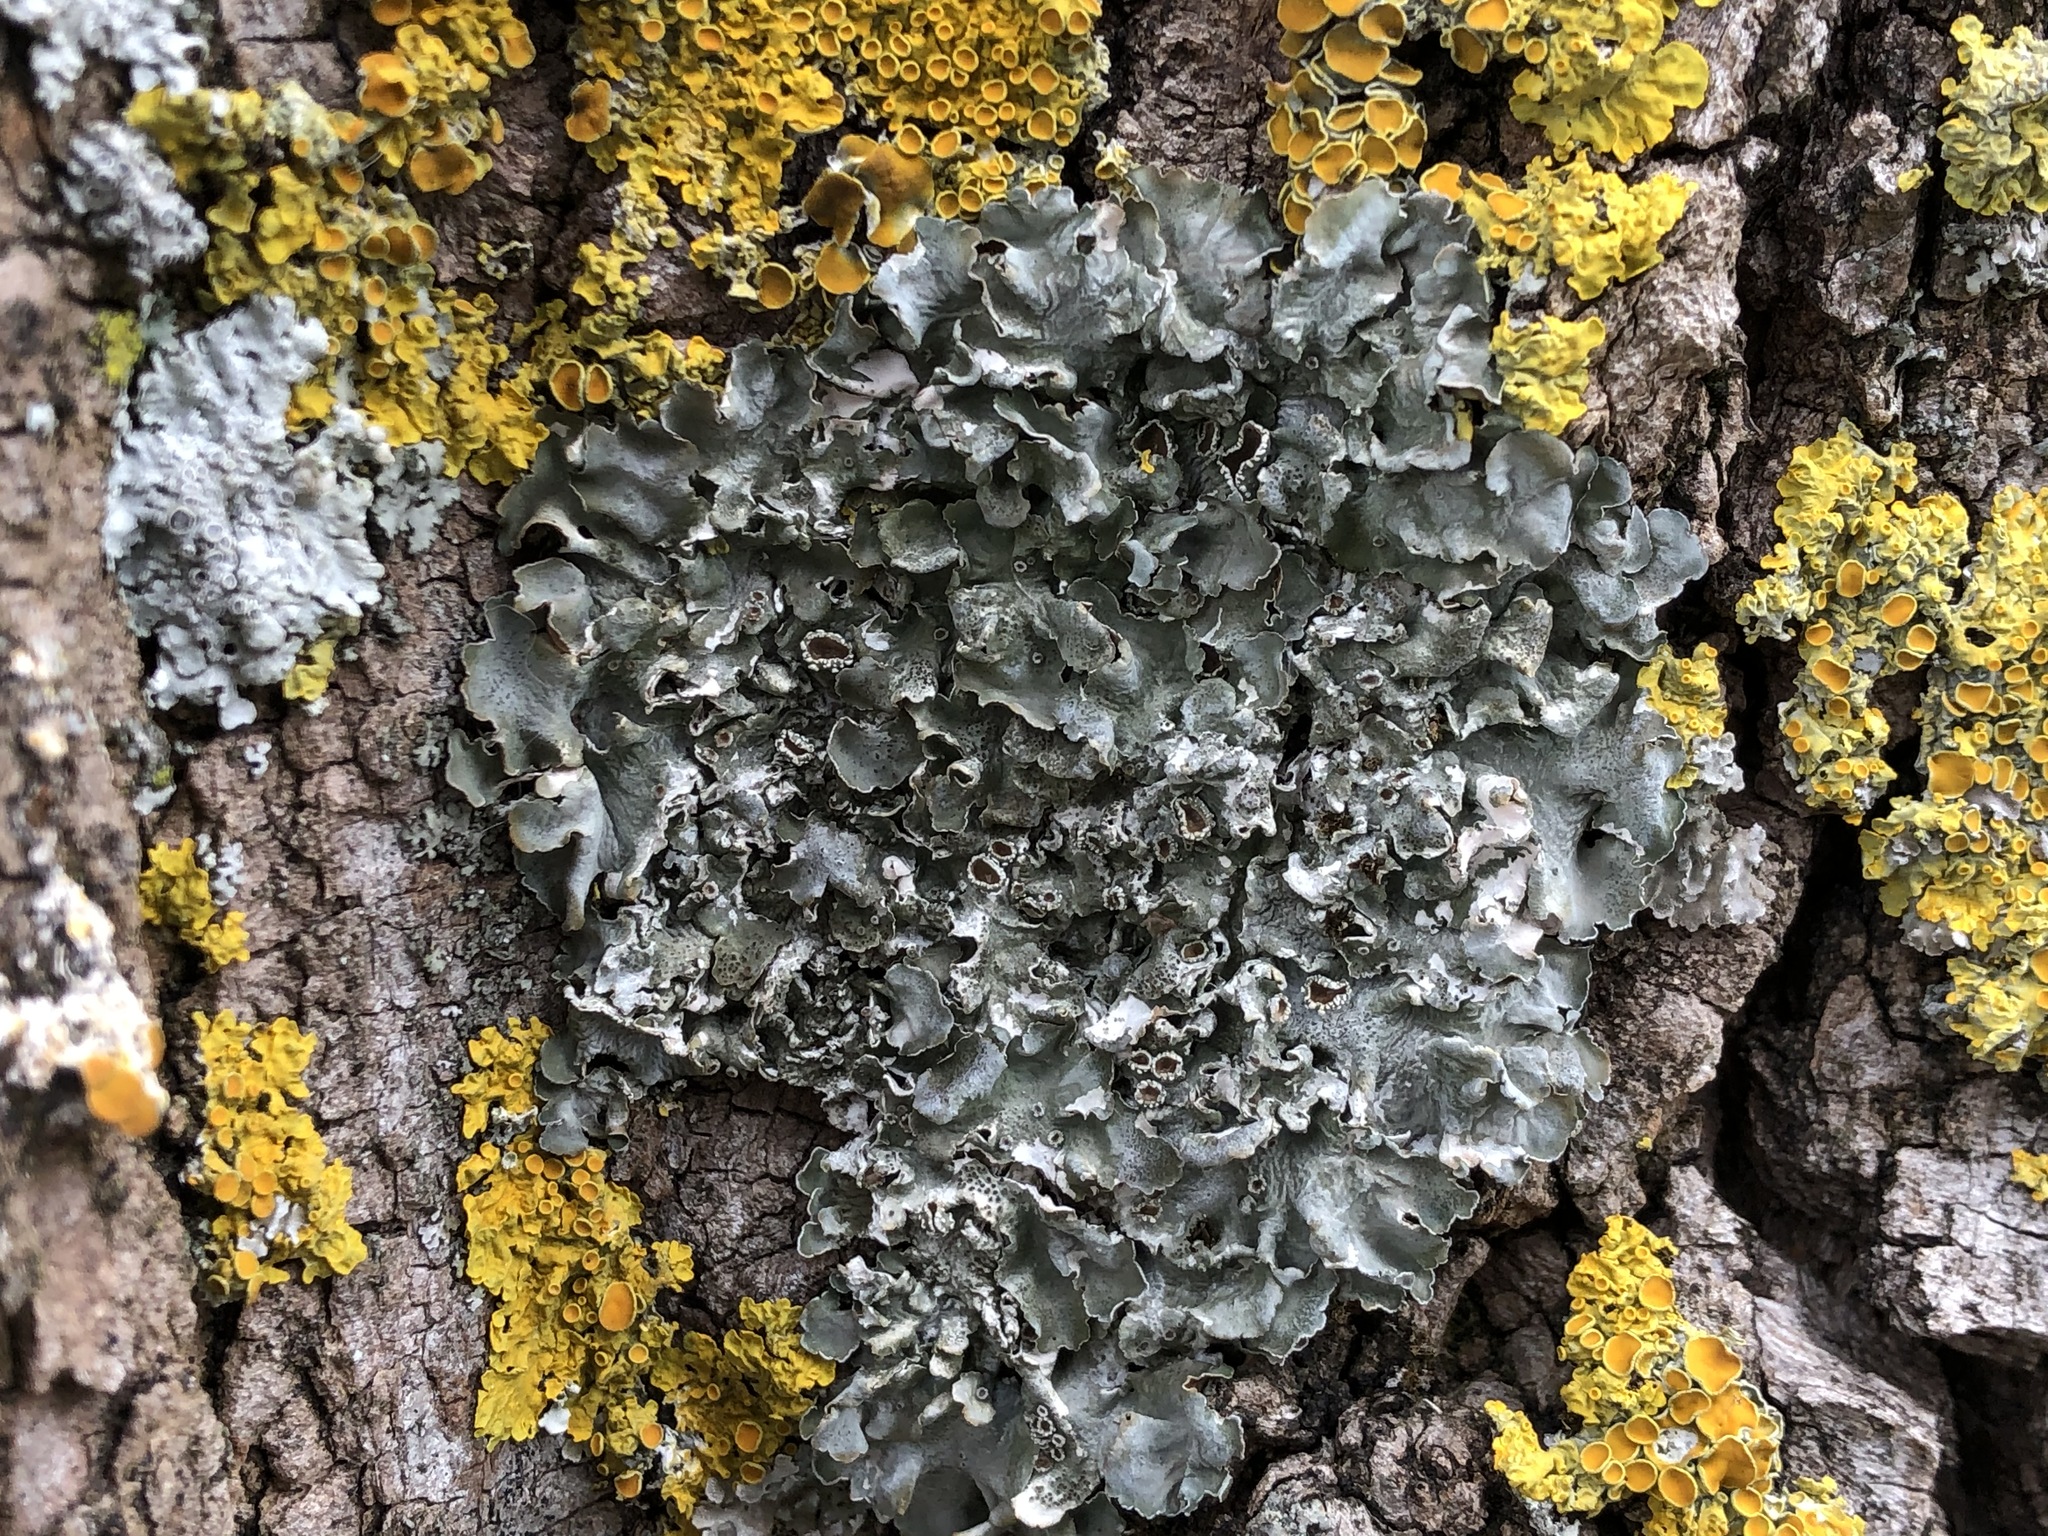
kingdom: Fungi
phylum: Ascomycota
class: Lecanoromycetes
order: Lecanorales
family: Parmeliaceae
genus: Pleurosticta
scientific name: Pleurosticta acetabulum
